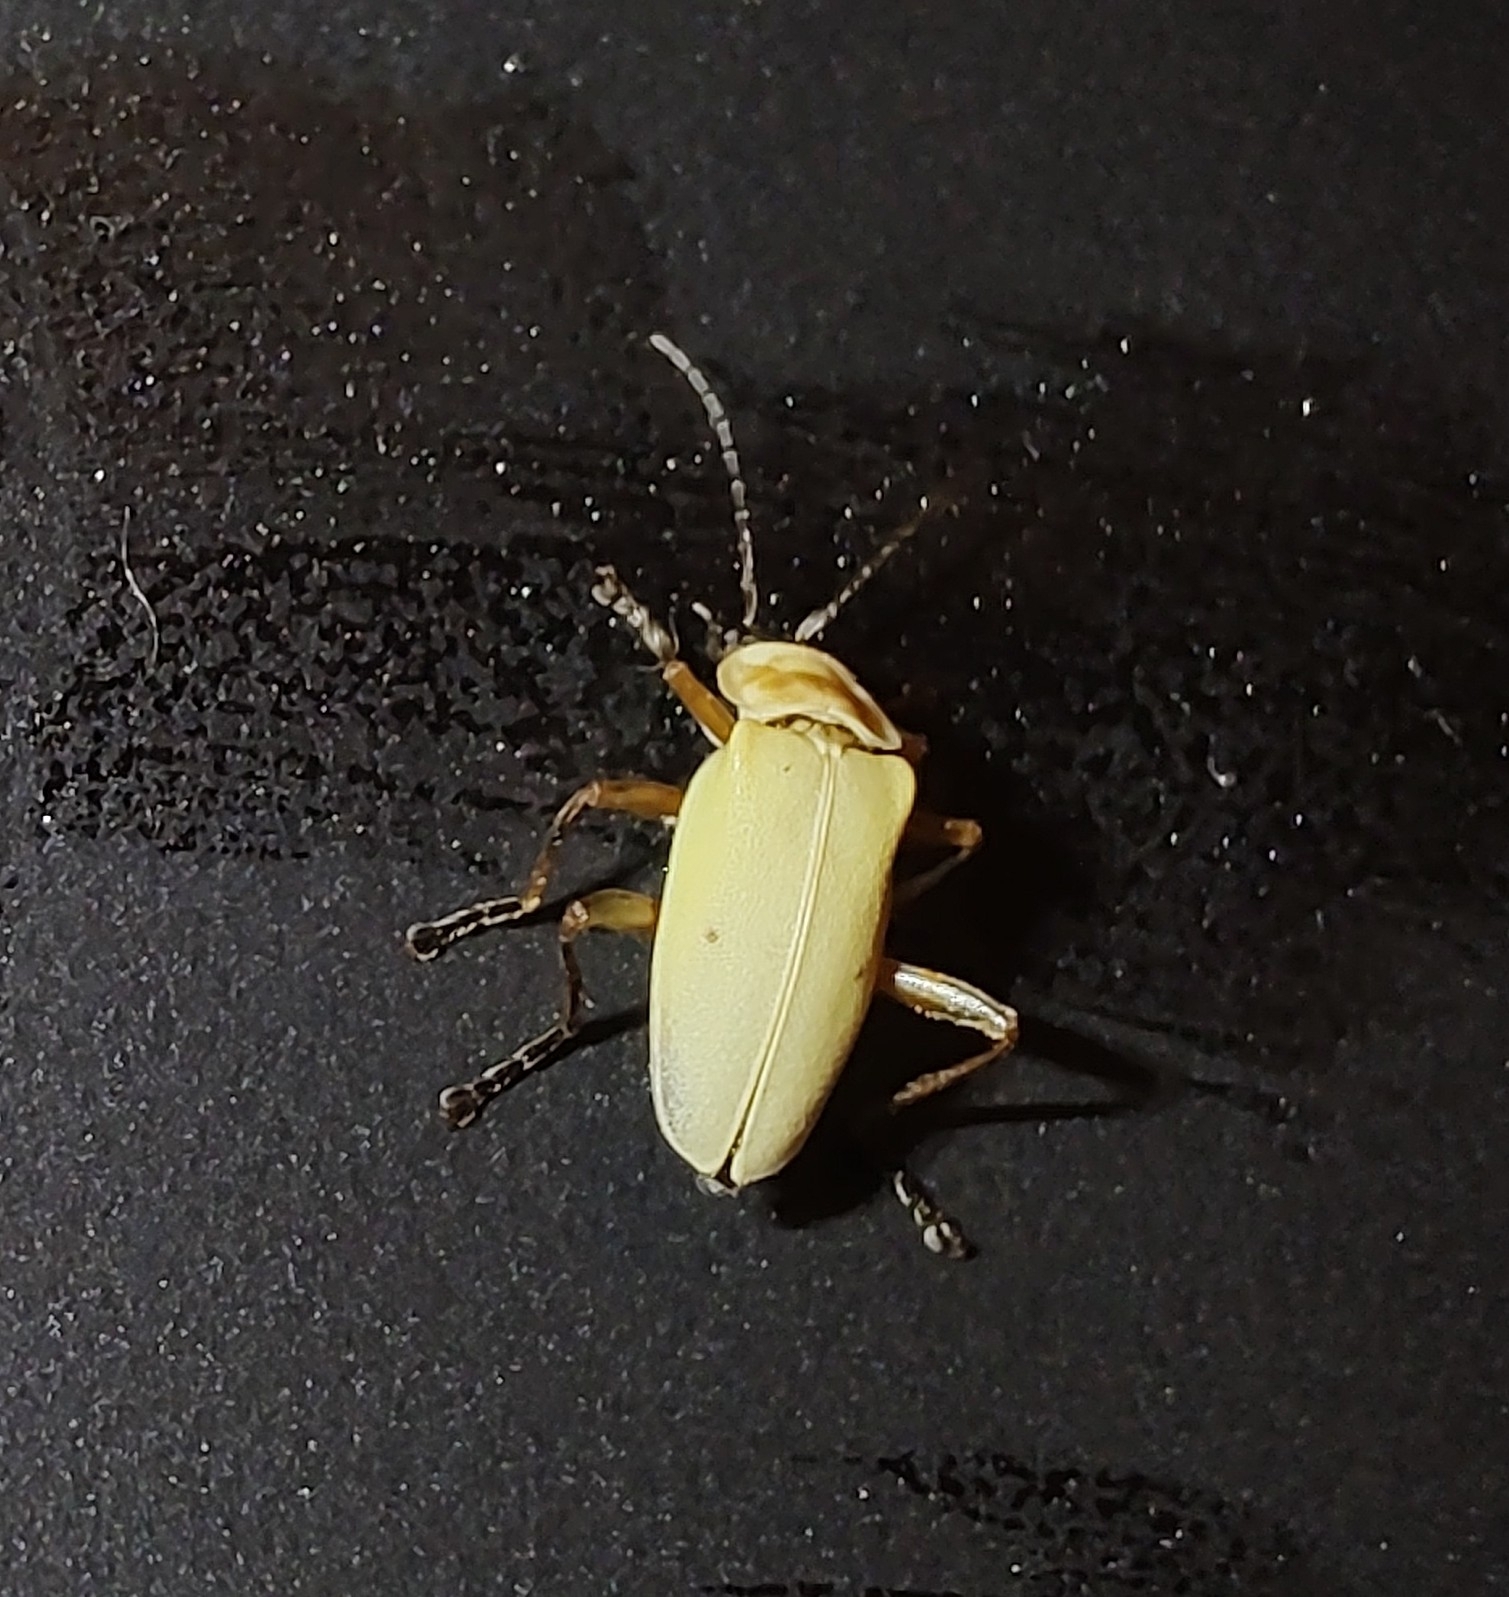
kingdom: Animalia
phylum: Arthropoda
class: Insecta
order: Coleoptera
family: Cantharidae
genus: Chauliognathus
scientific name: Chauliognathus
